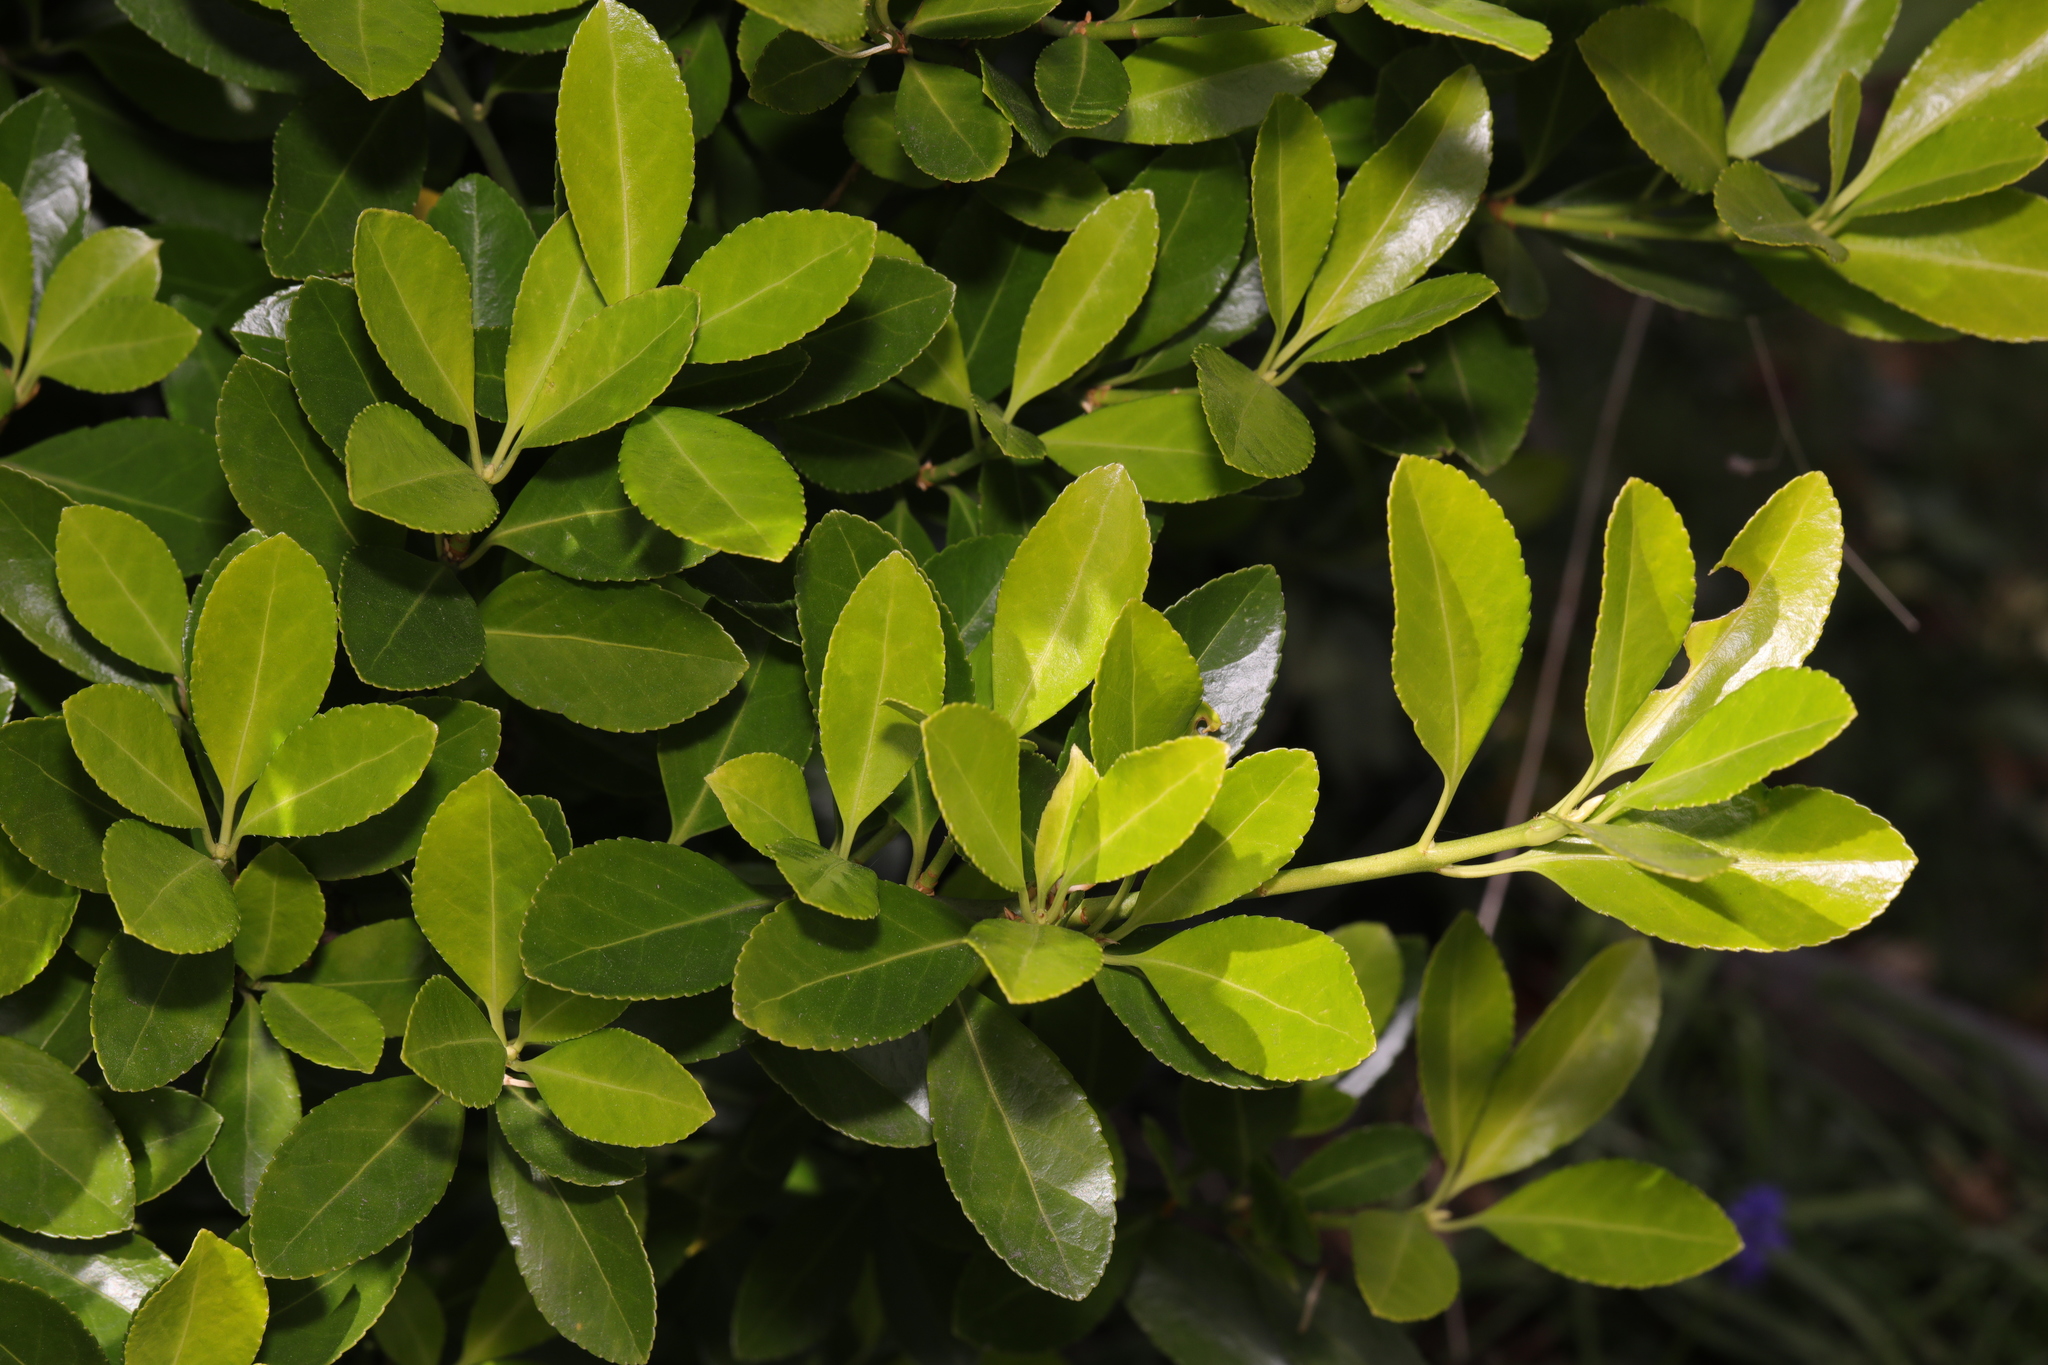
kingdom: Plantae
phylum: Tracheophyta
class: Magnoliopsida
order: Celastrales
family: Celastraceae
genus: Euonymus
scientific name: Euonymus japonicus
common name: Japanese spindletree
